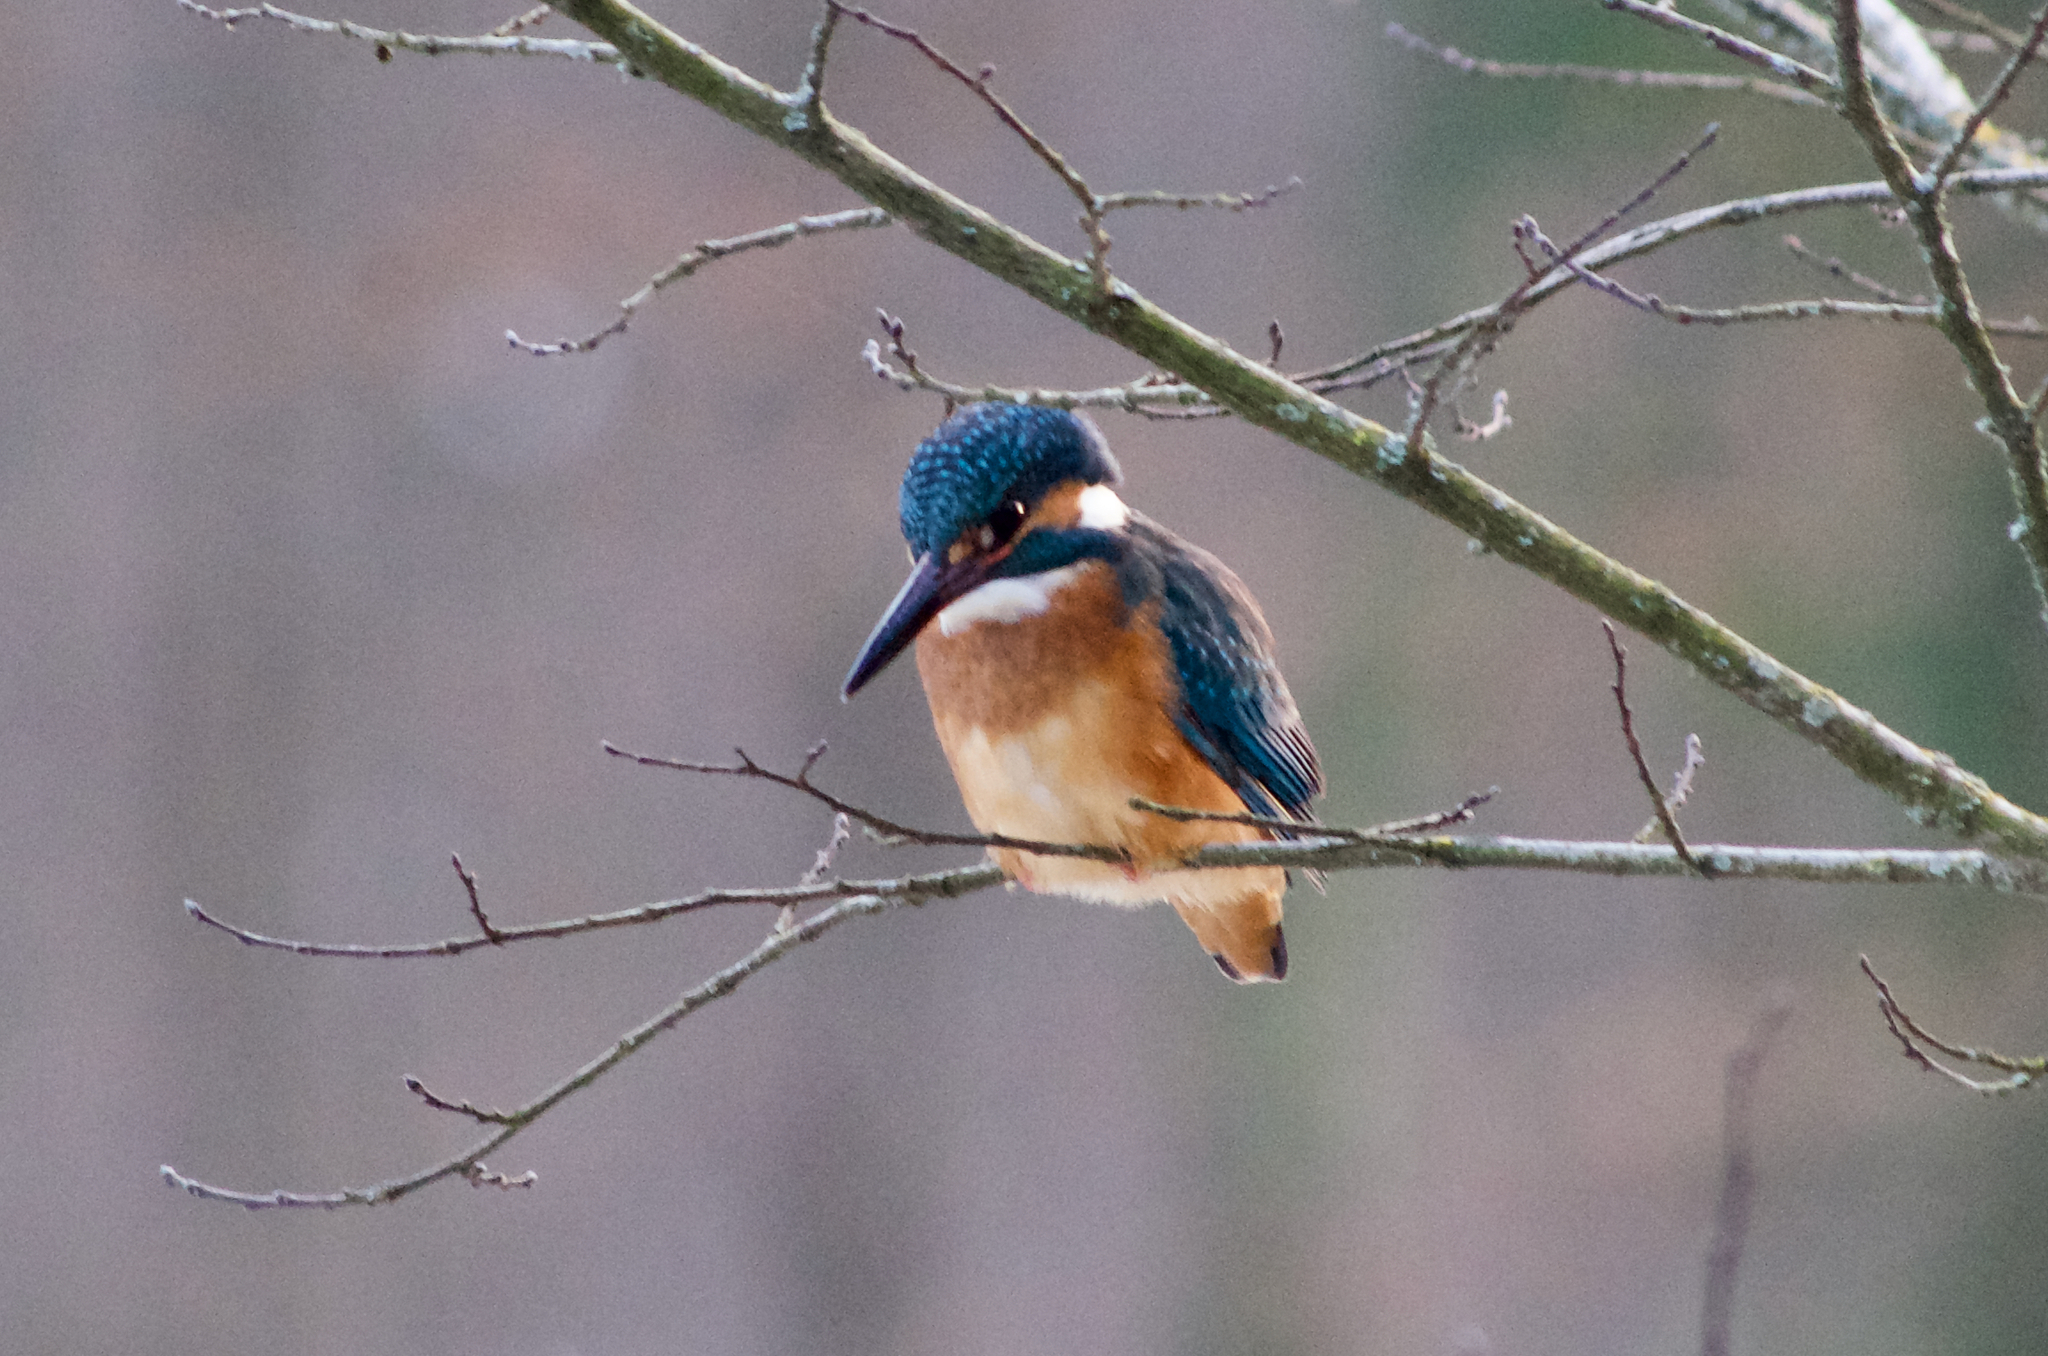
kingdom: Animalia
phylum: Chordata
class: Aves
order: Coraciiformes
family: Alcedinidae
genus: Alcedo
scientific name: Alcedo atthis
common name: Common kingfisher
